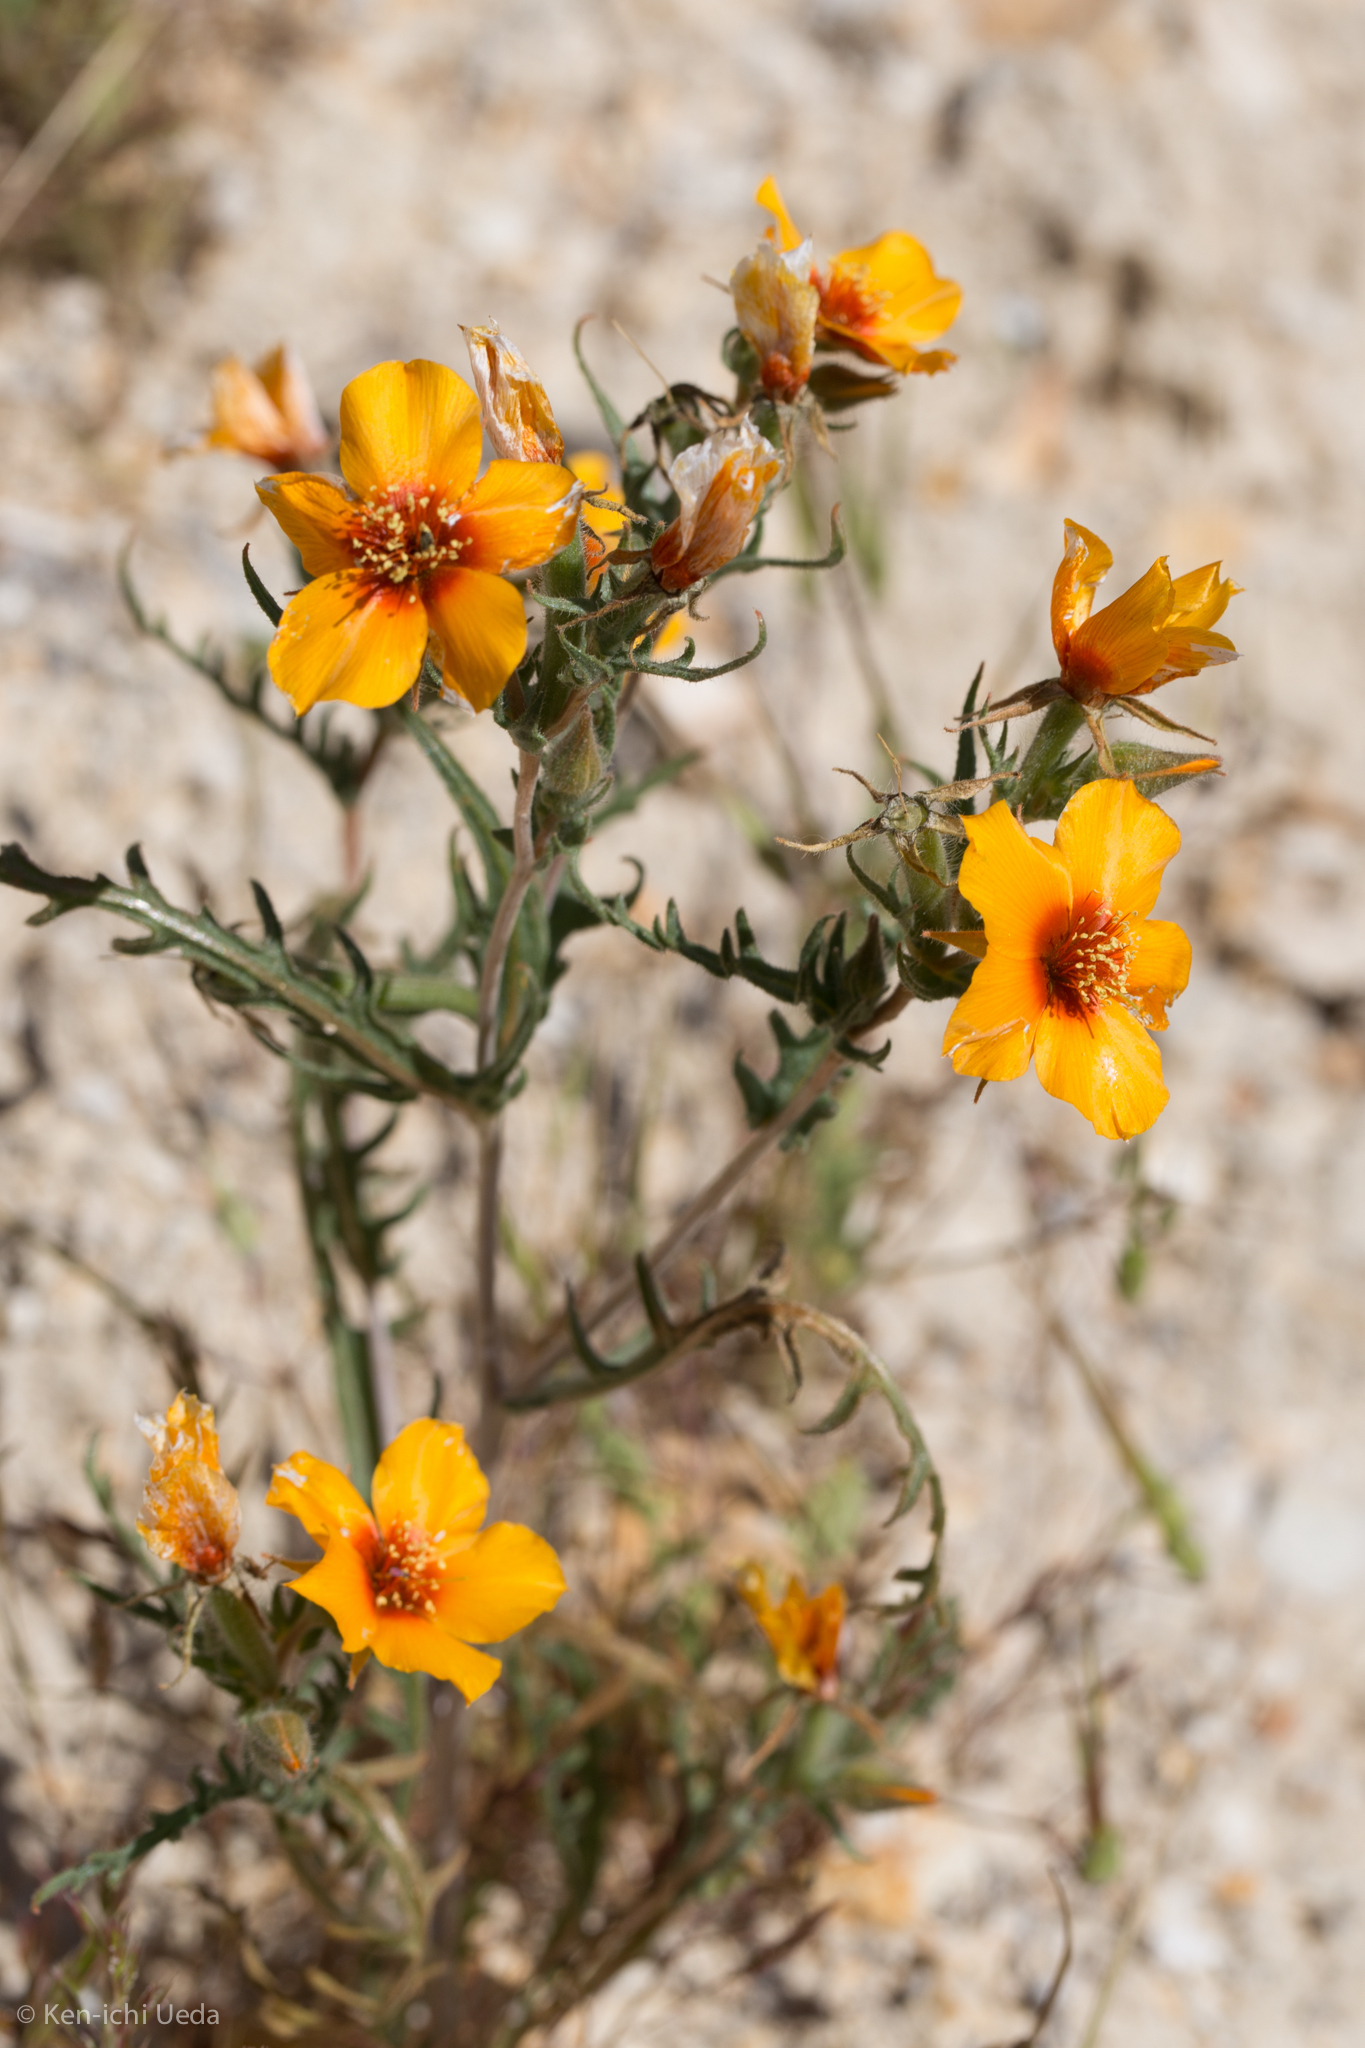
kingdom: Plantae
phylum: Tracheophyta
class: Magnoliopsida
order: Cornales
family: Loasaceae
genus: Mentzelia
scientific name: Mentzelia pectinata
